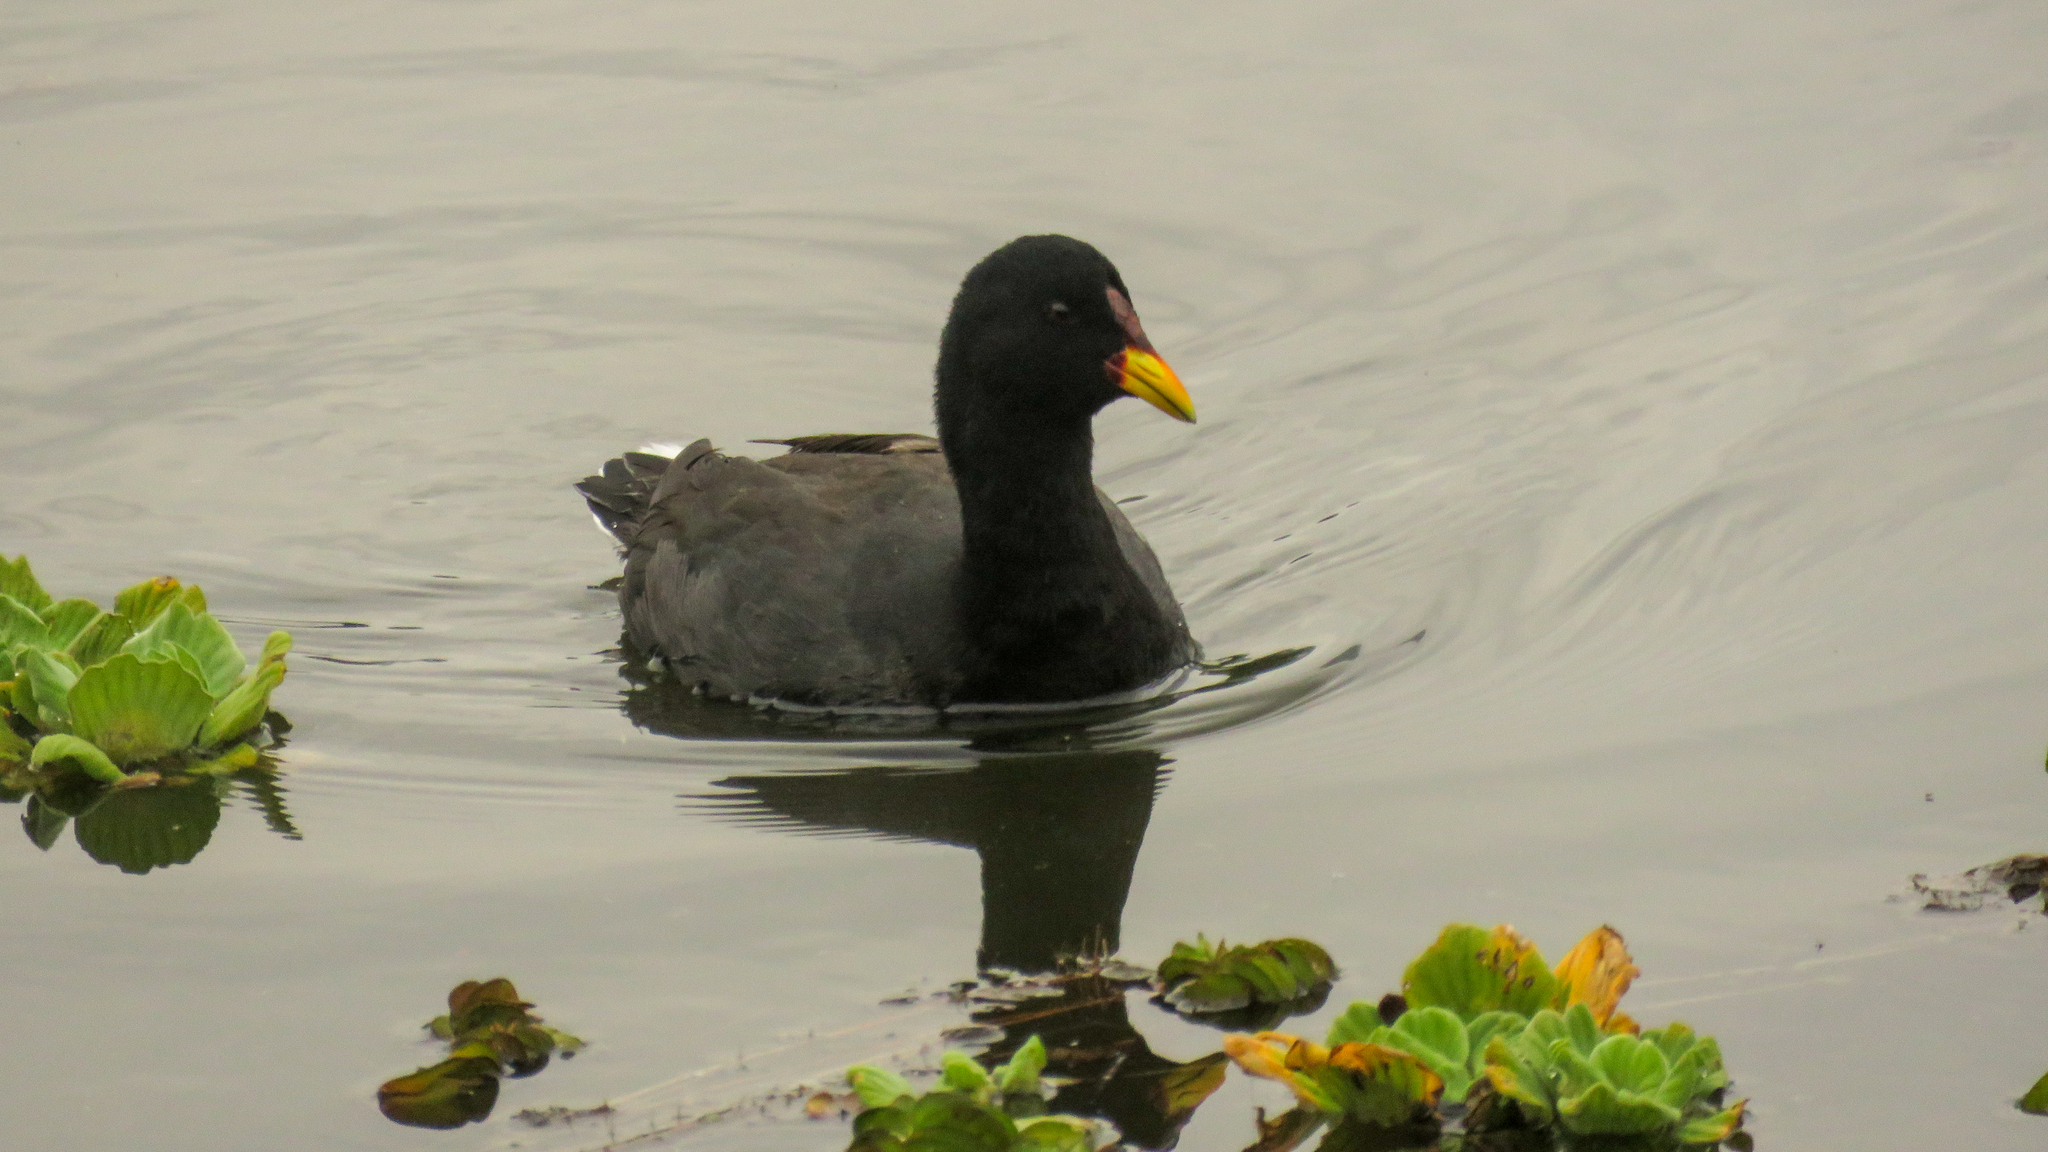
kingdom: Animalia
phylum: Chordata
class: Aves
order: Gruiformes
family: Rallidae
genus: Fulica
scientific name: Fulica rufifrons
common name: Red-fronted coot
